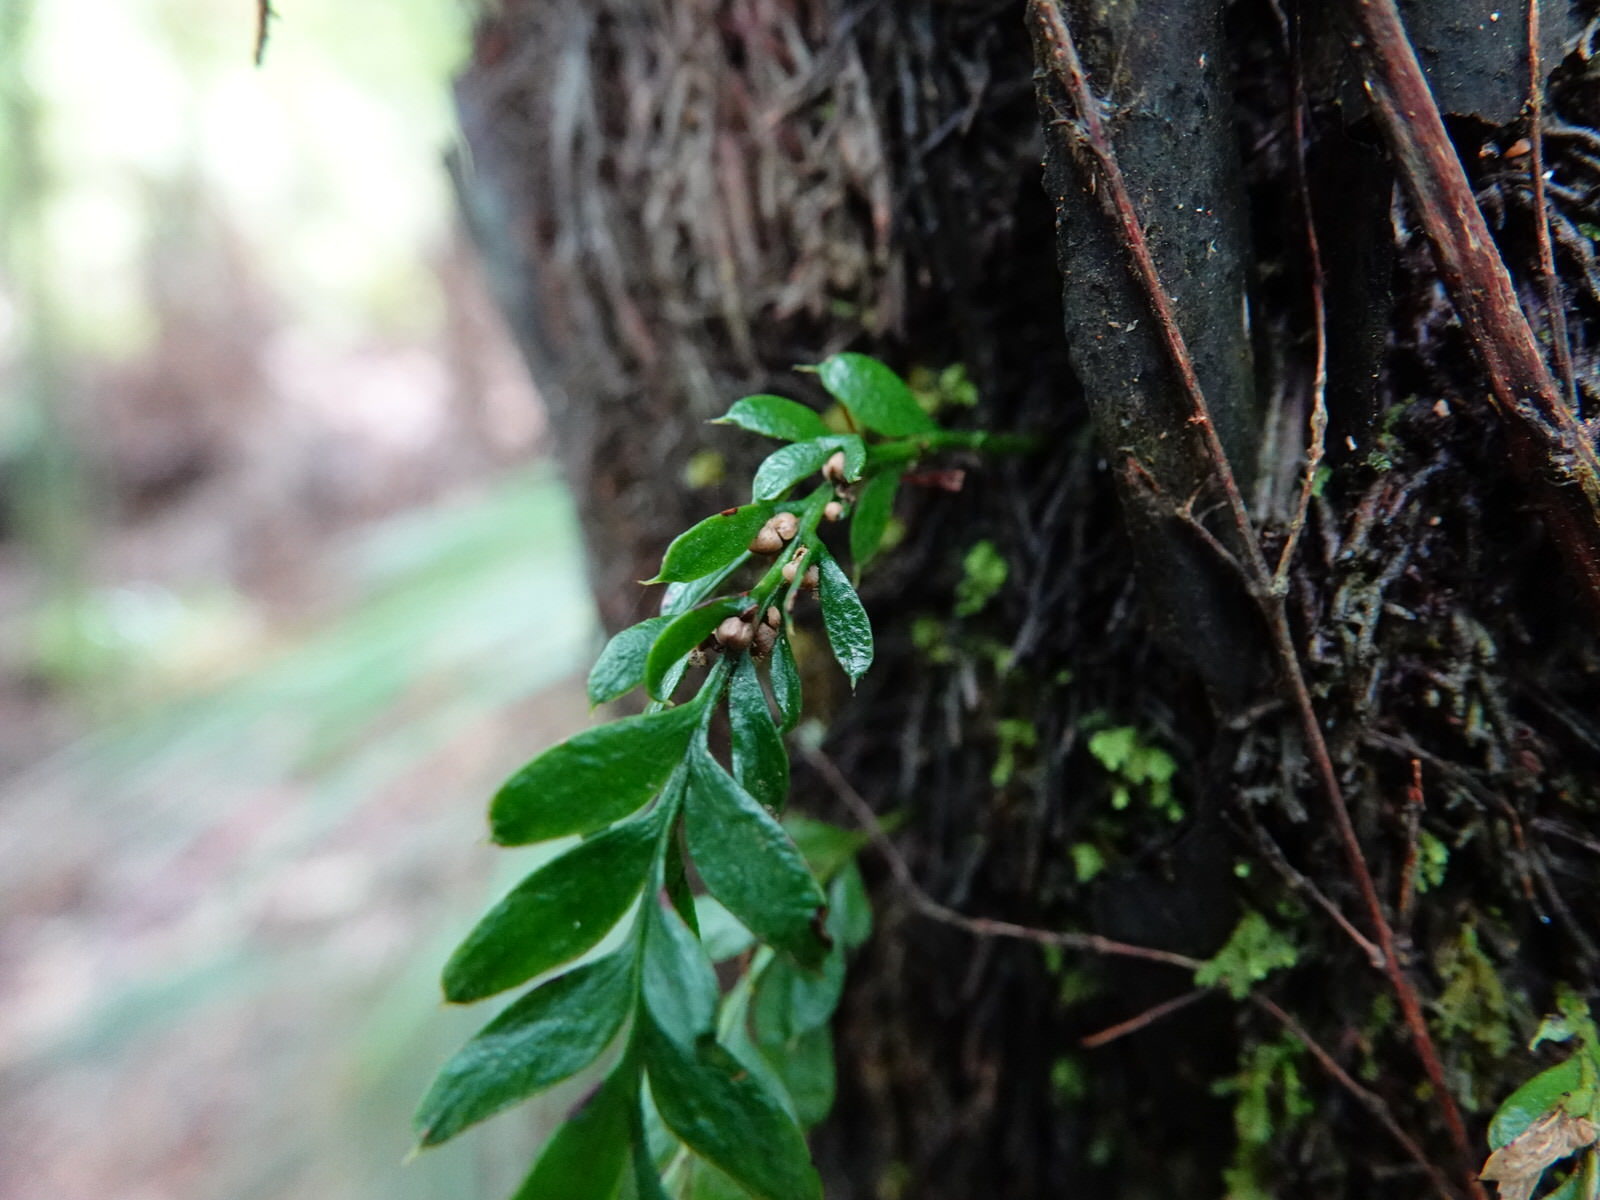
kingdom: Plantae
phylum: Tracheophyta
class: Polypodiopsida
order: Psilotales
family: Psilotaceae
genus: Tmesipteris
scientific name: Tmesipteris lanceolata
